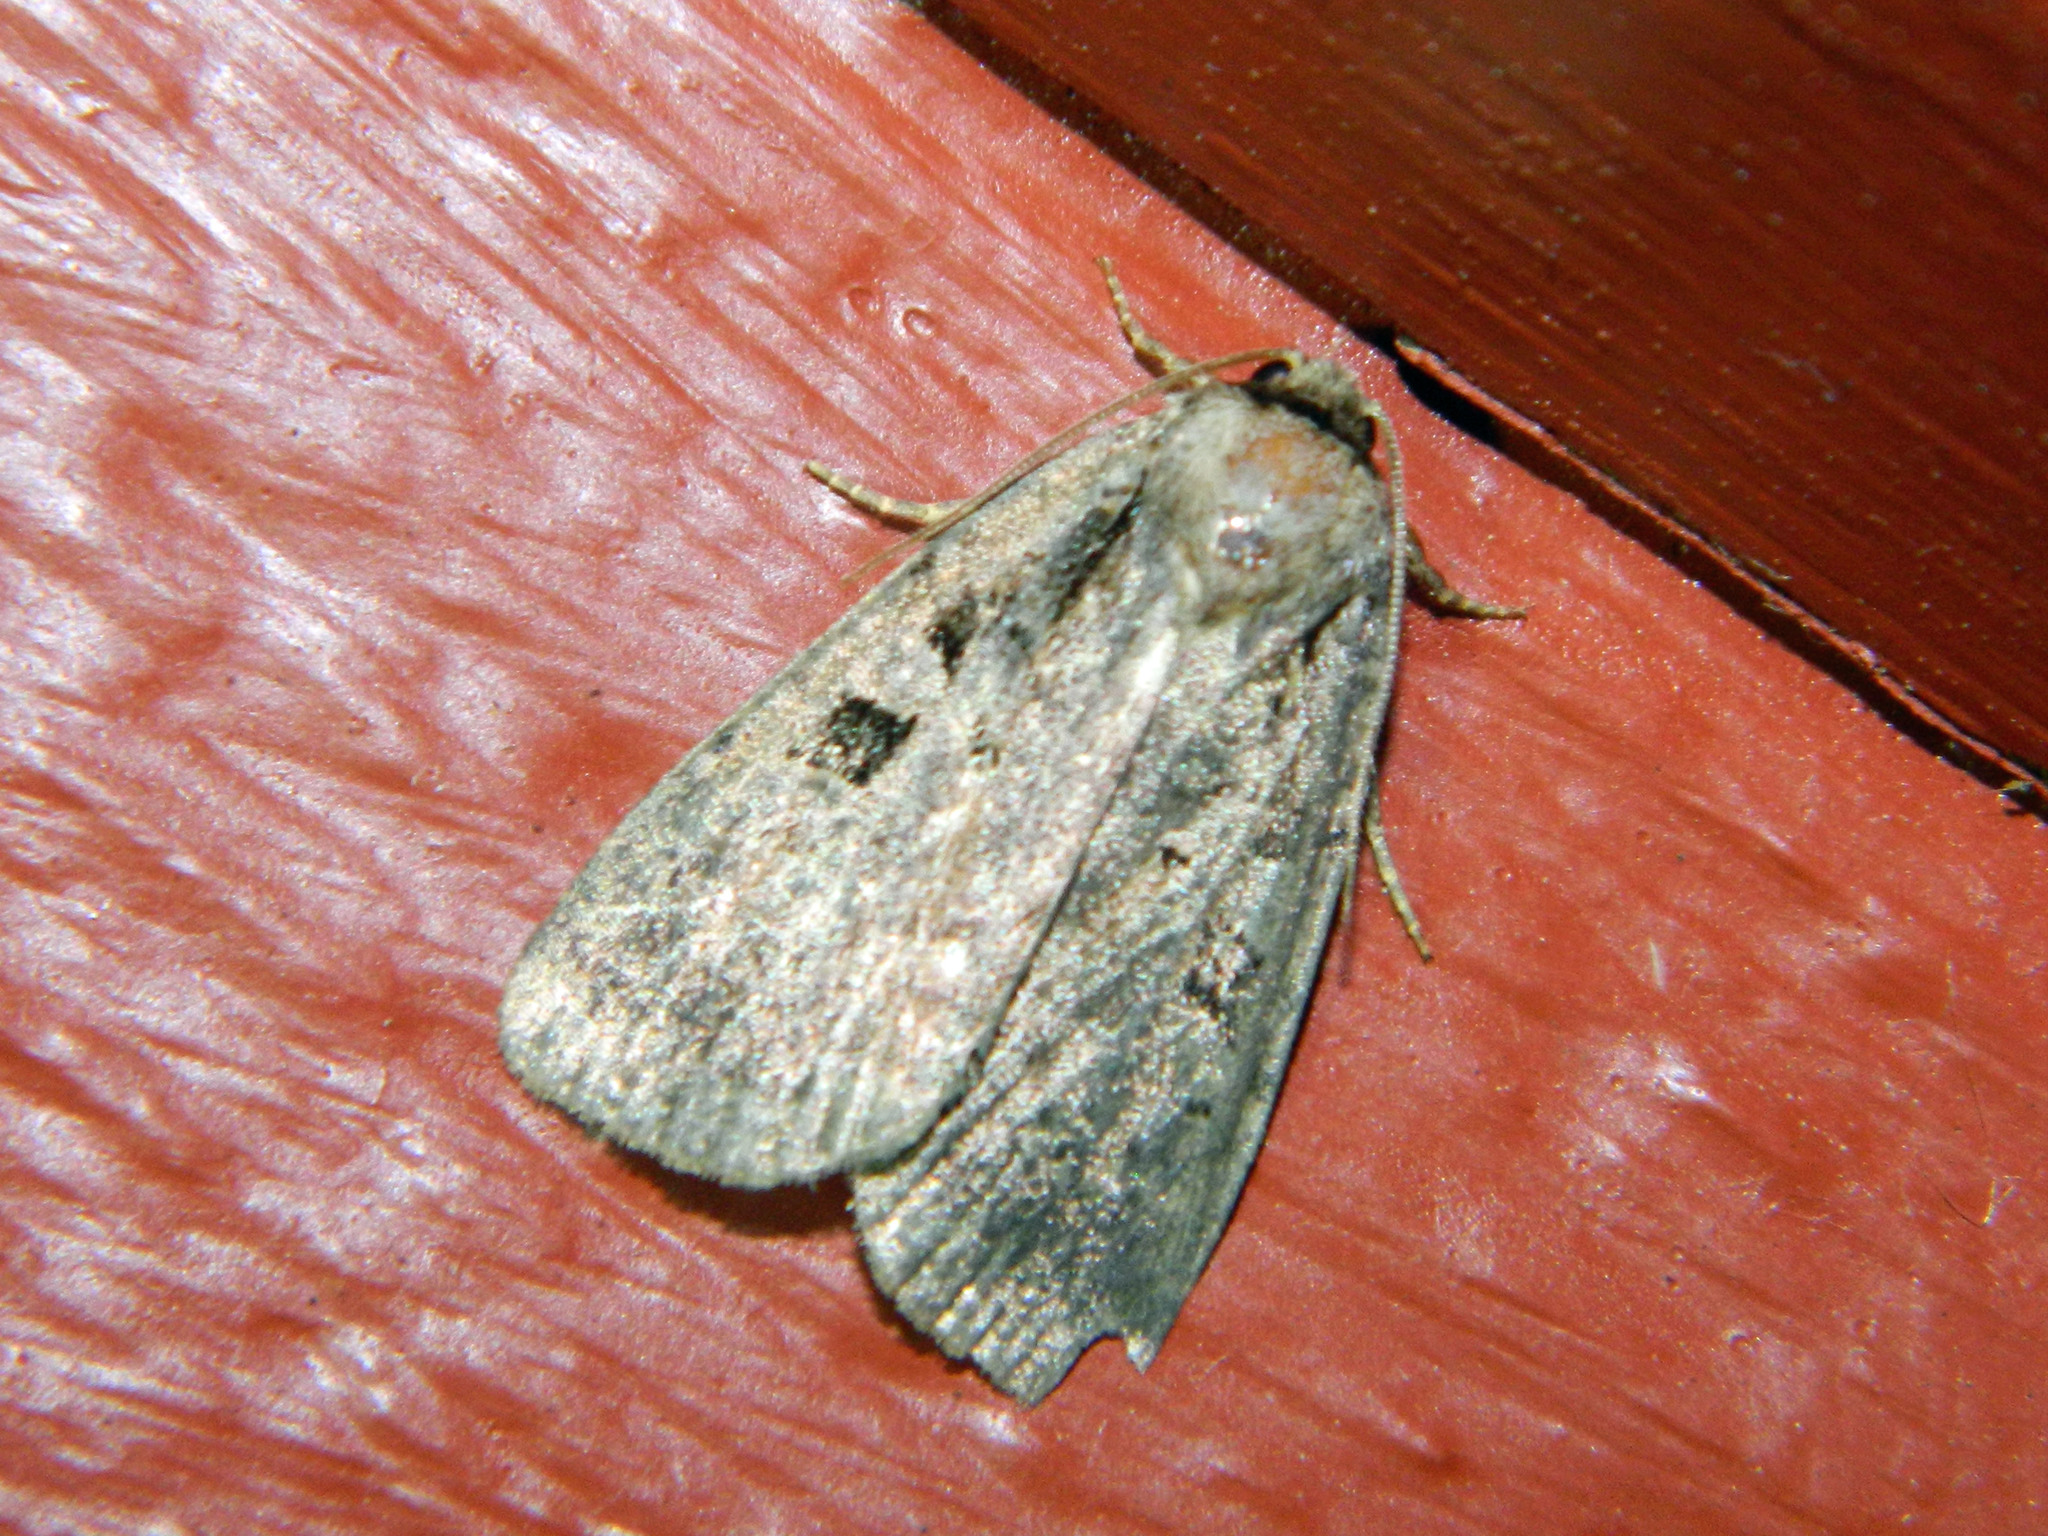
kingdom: Animalia
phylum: Arthropoda
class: Insecta
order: Lepidoptera
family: Noctuidae
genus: Eueretagrotis
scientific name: Eueretagrotis perattentus
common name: Two-spot dart moth
